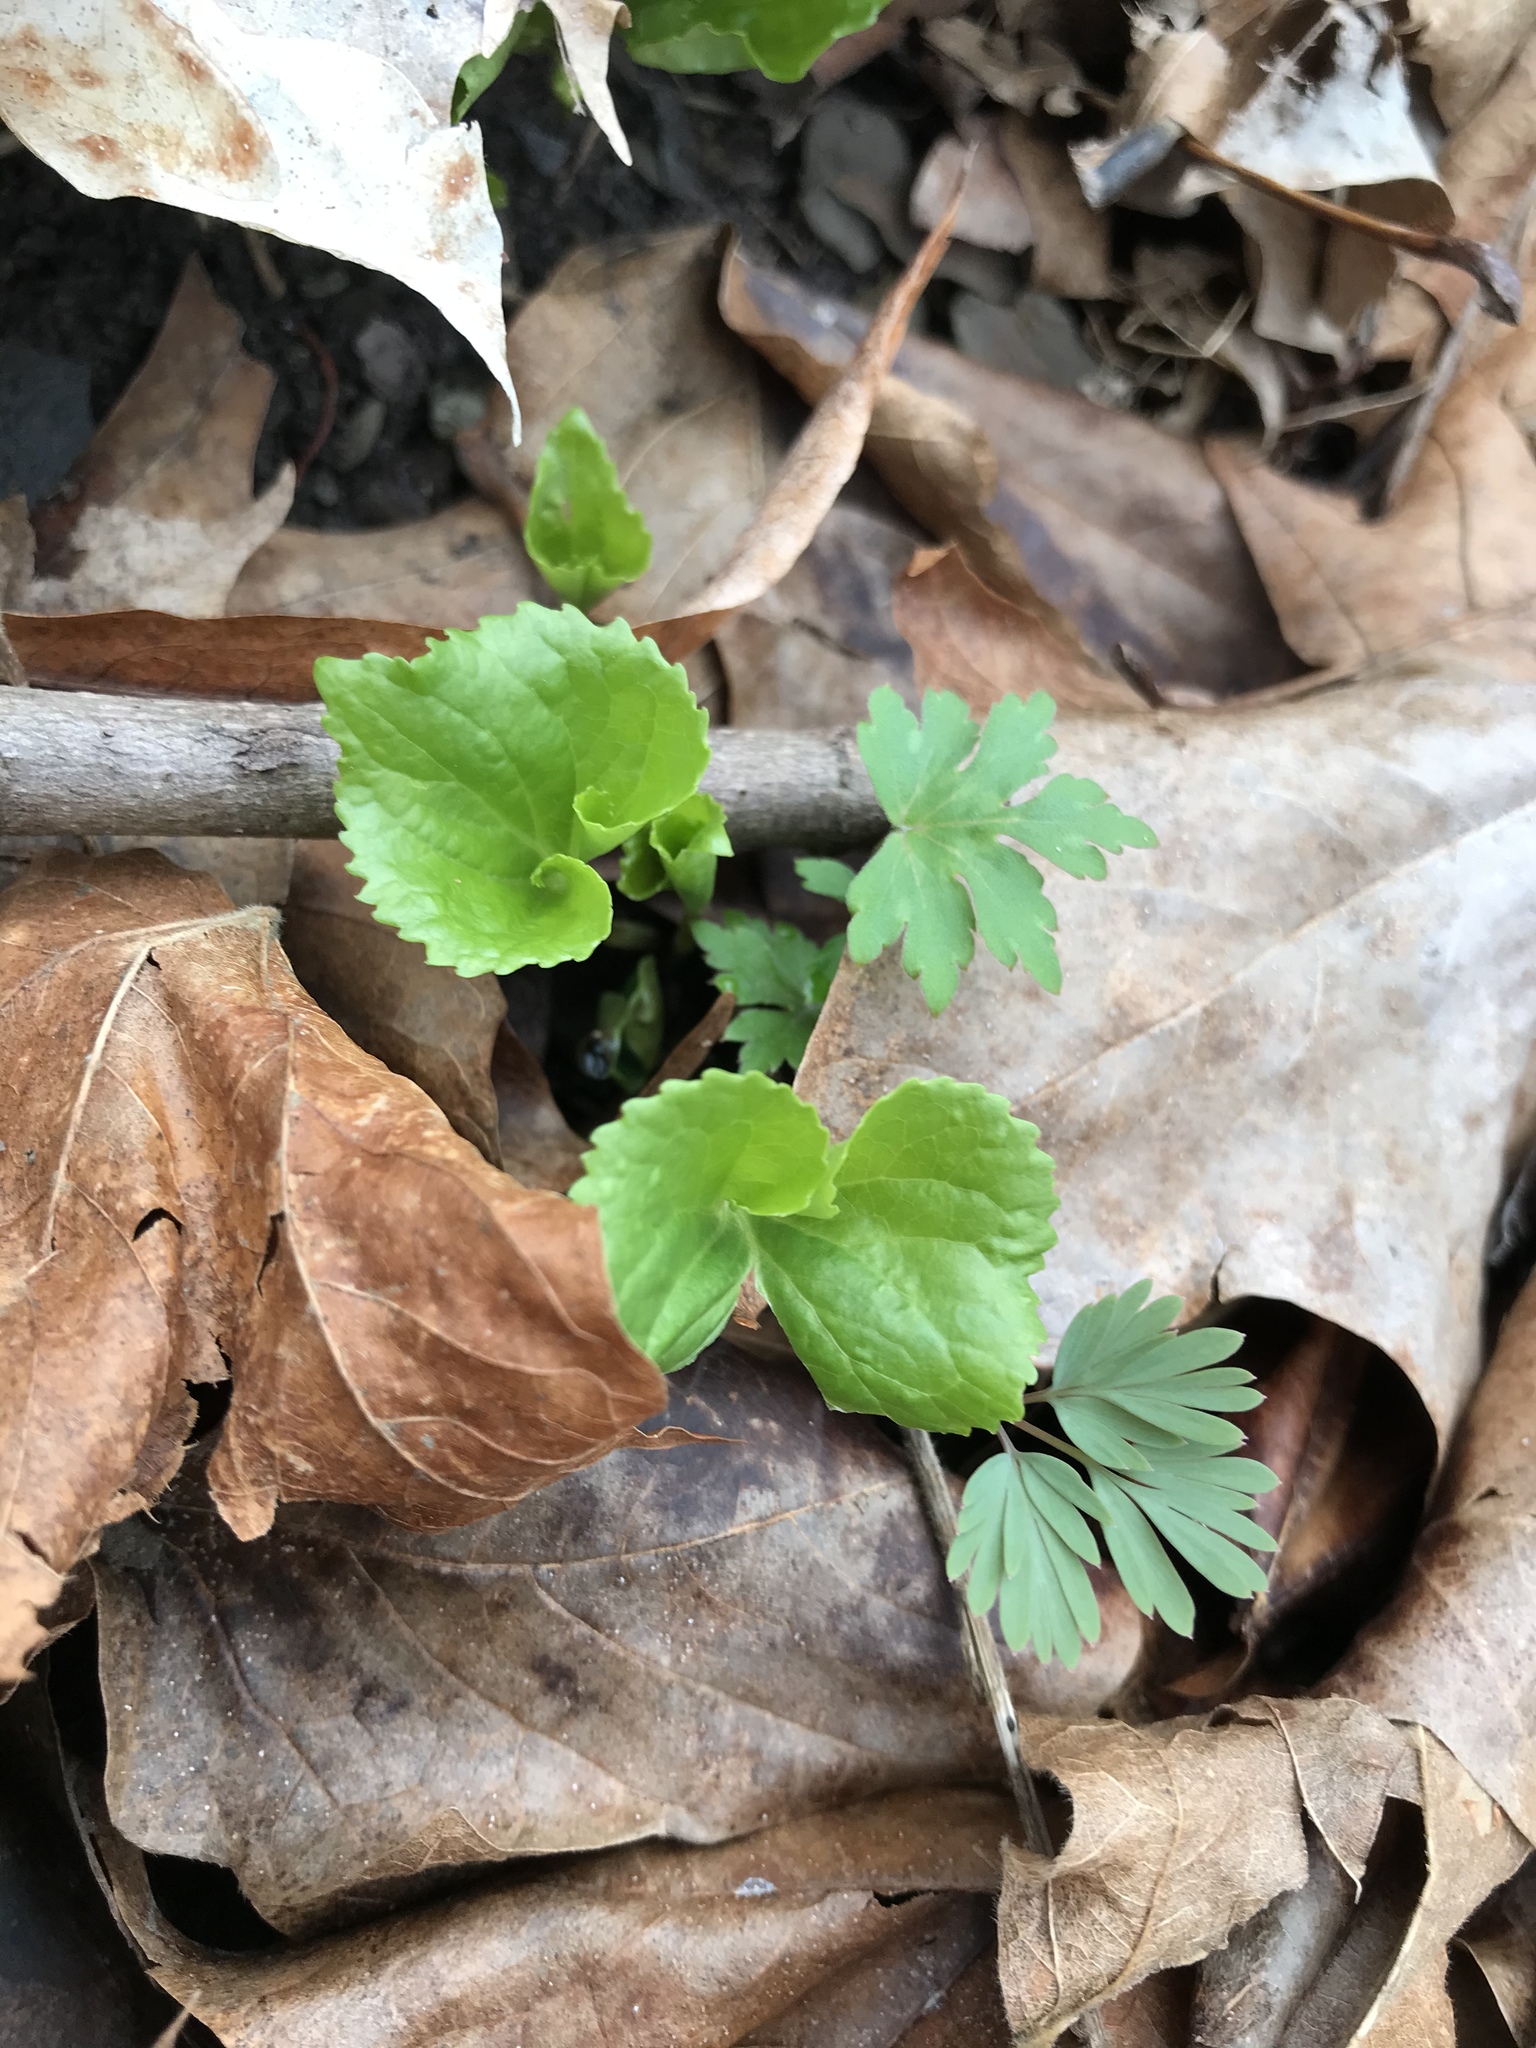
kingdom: Plantae
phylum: Tracheophyta
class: Magnoliopsida
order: Malpighiales
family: Violaceae
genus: Viola
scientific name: Viola eriocarpa
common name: Smooth yellow violet
